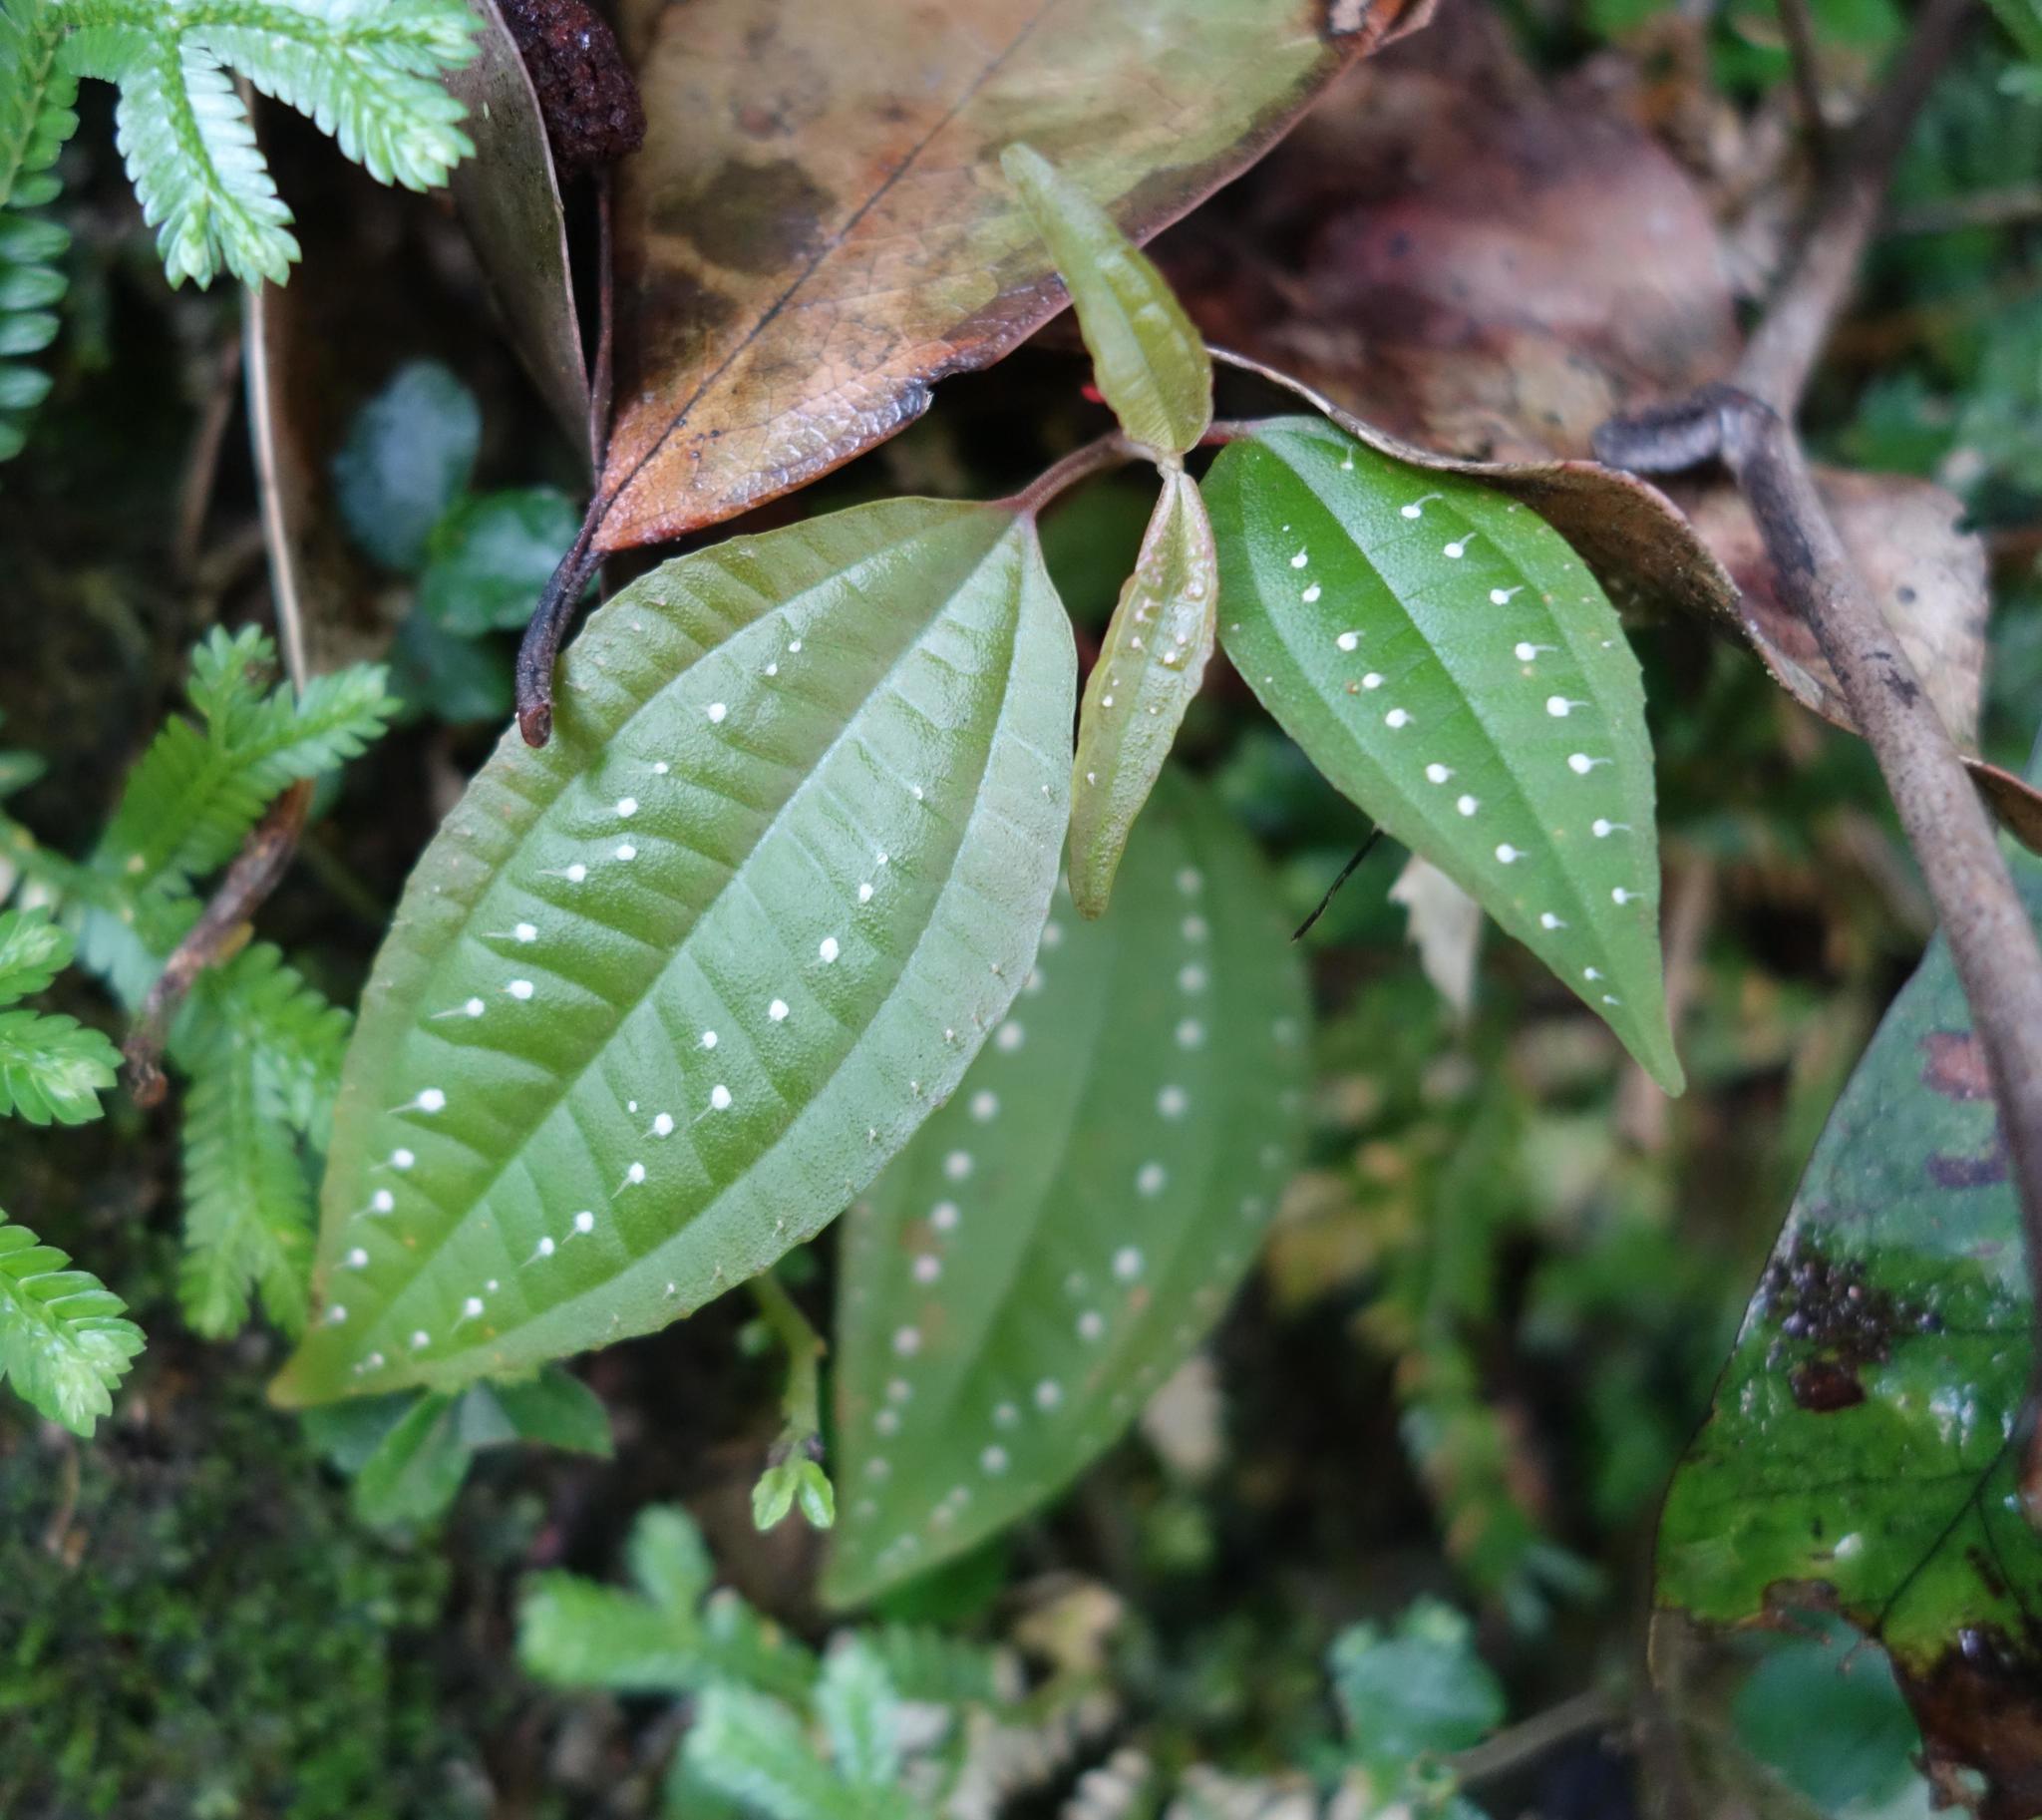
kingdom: Plantae
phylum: Tracheophyta
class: Magnoliopsida
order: Myrtales
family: Melastomataceae
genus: Blastus
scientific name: Blastus cochinchinensis
